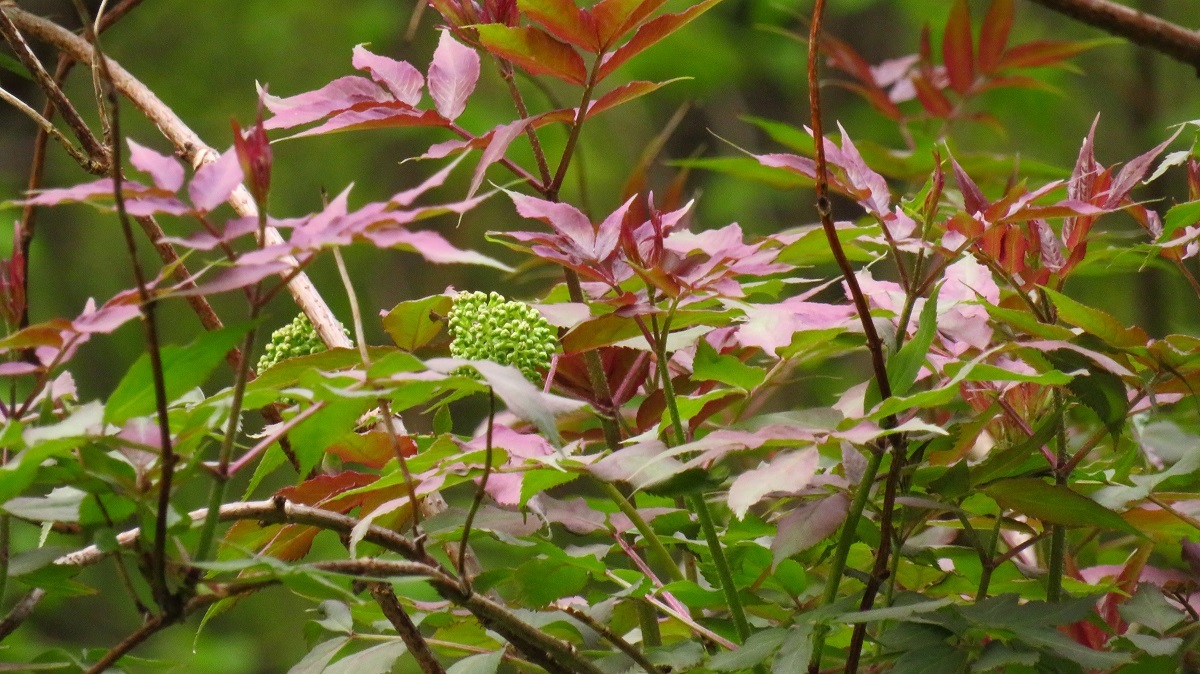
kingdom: Plantae
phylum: Tracheophyta
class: Magnoliopsida
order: Dipsacales
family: Viburnaceae
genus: Sambucus
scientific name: Sambucus racemosa
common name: Red-berried elder
